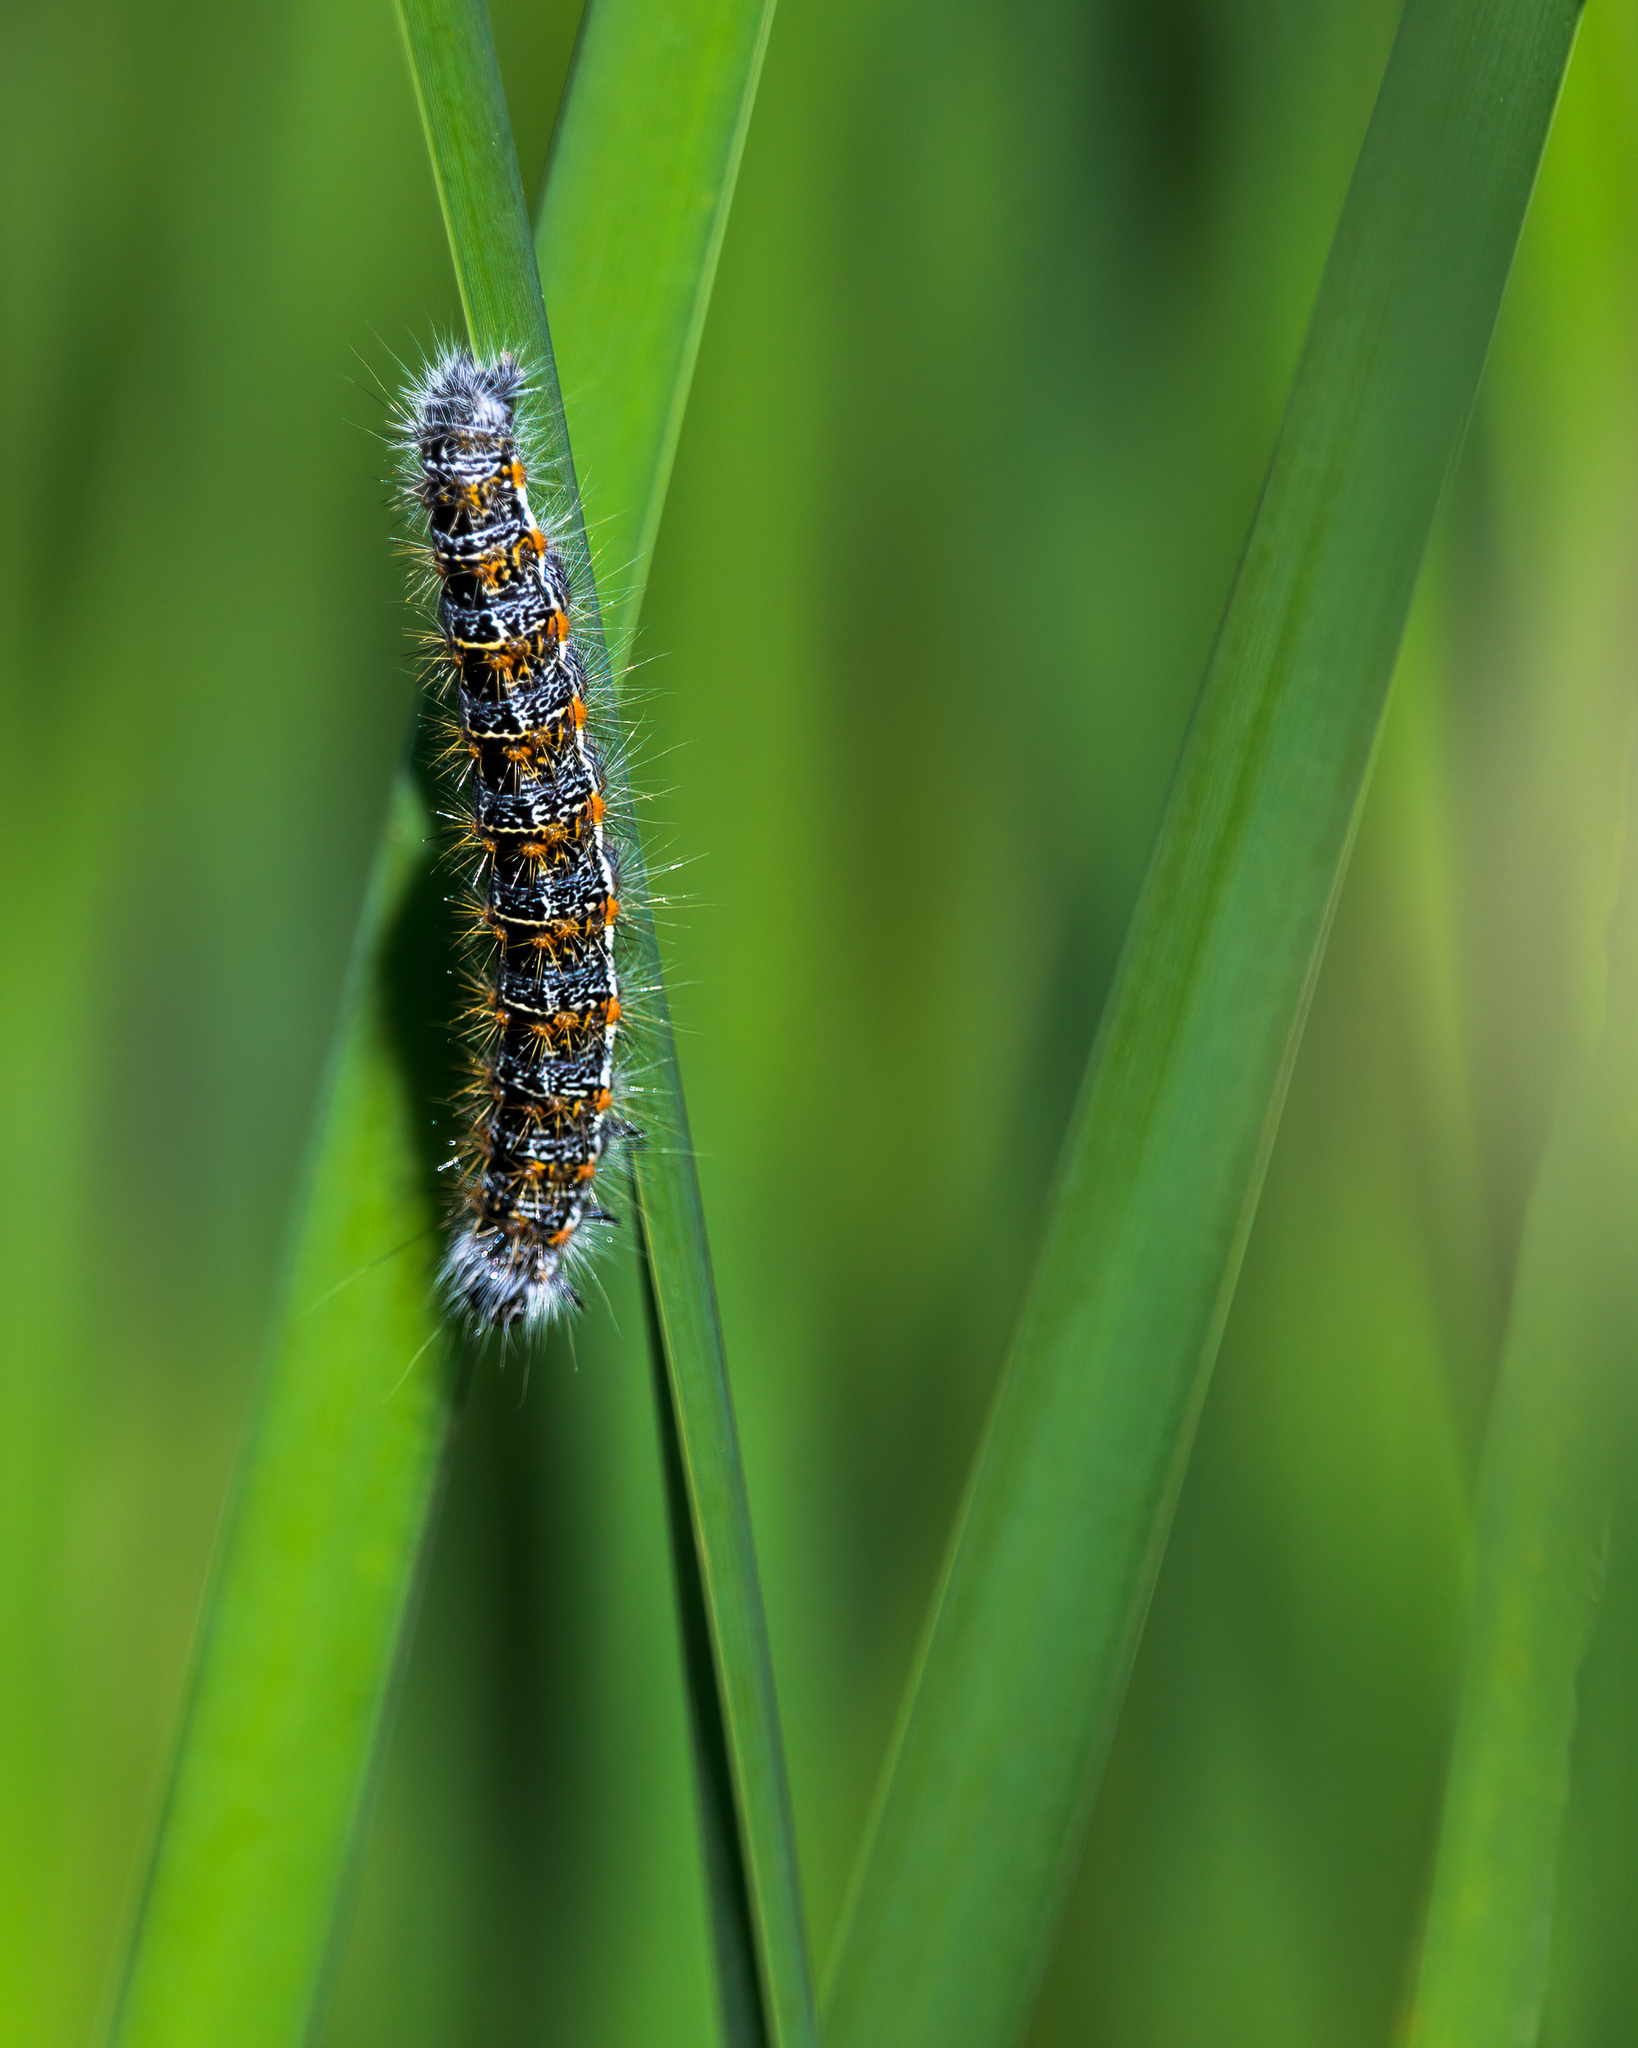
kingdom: Animalia
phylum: Arthropoda
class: Insecta
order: Lepidoptera
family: Noctuidae
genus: Acronicta
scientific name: Acronicta insularis
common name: Henry's marsh moth
